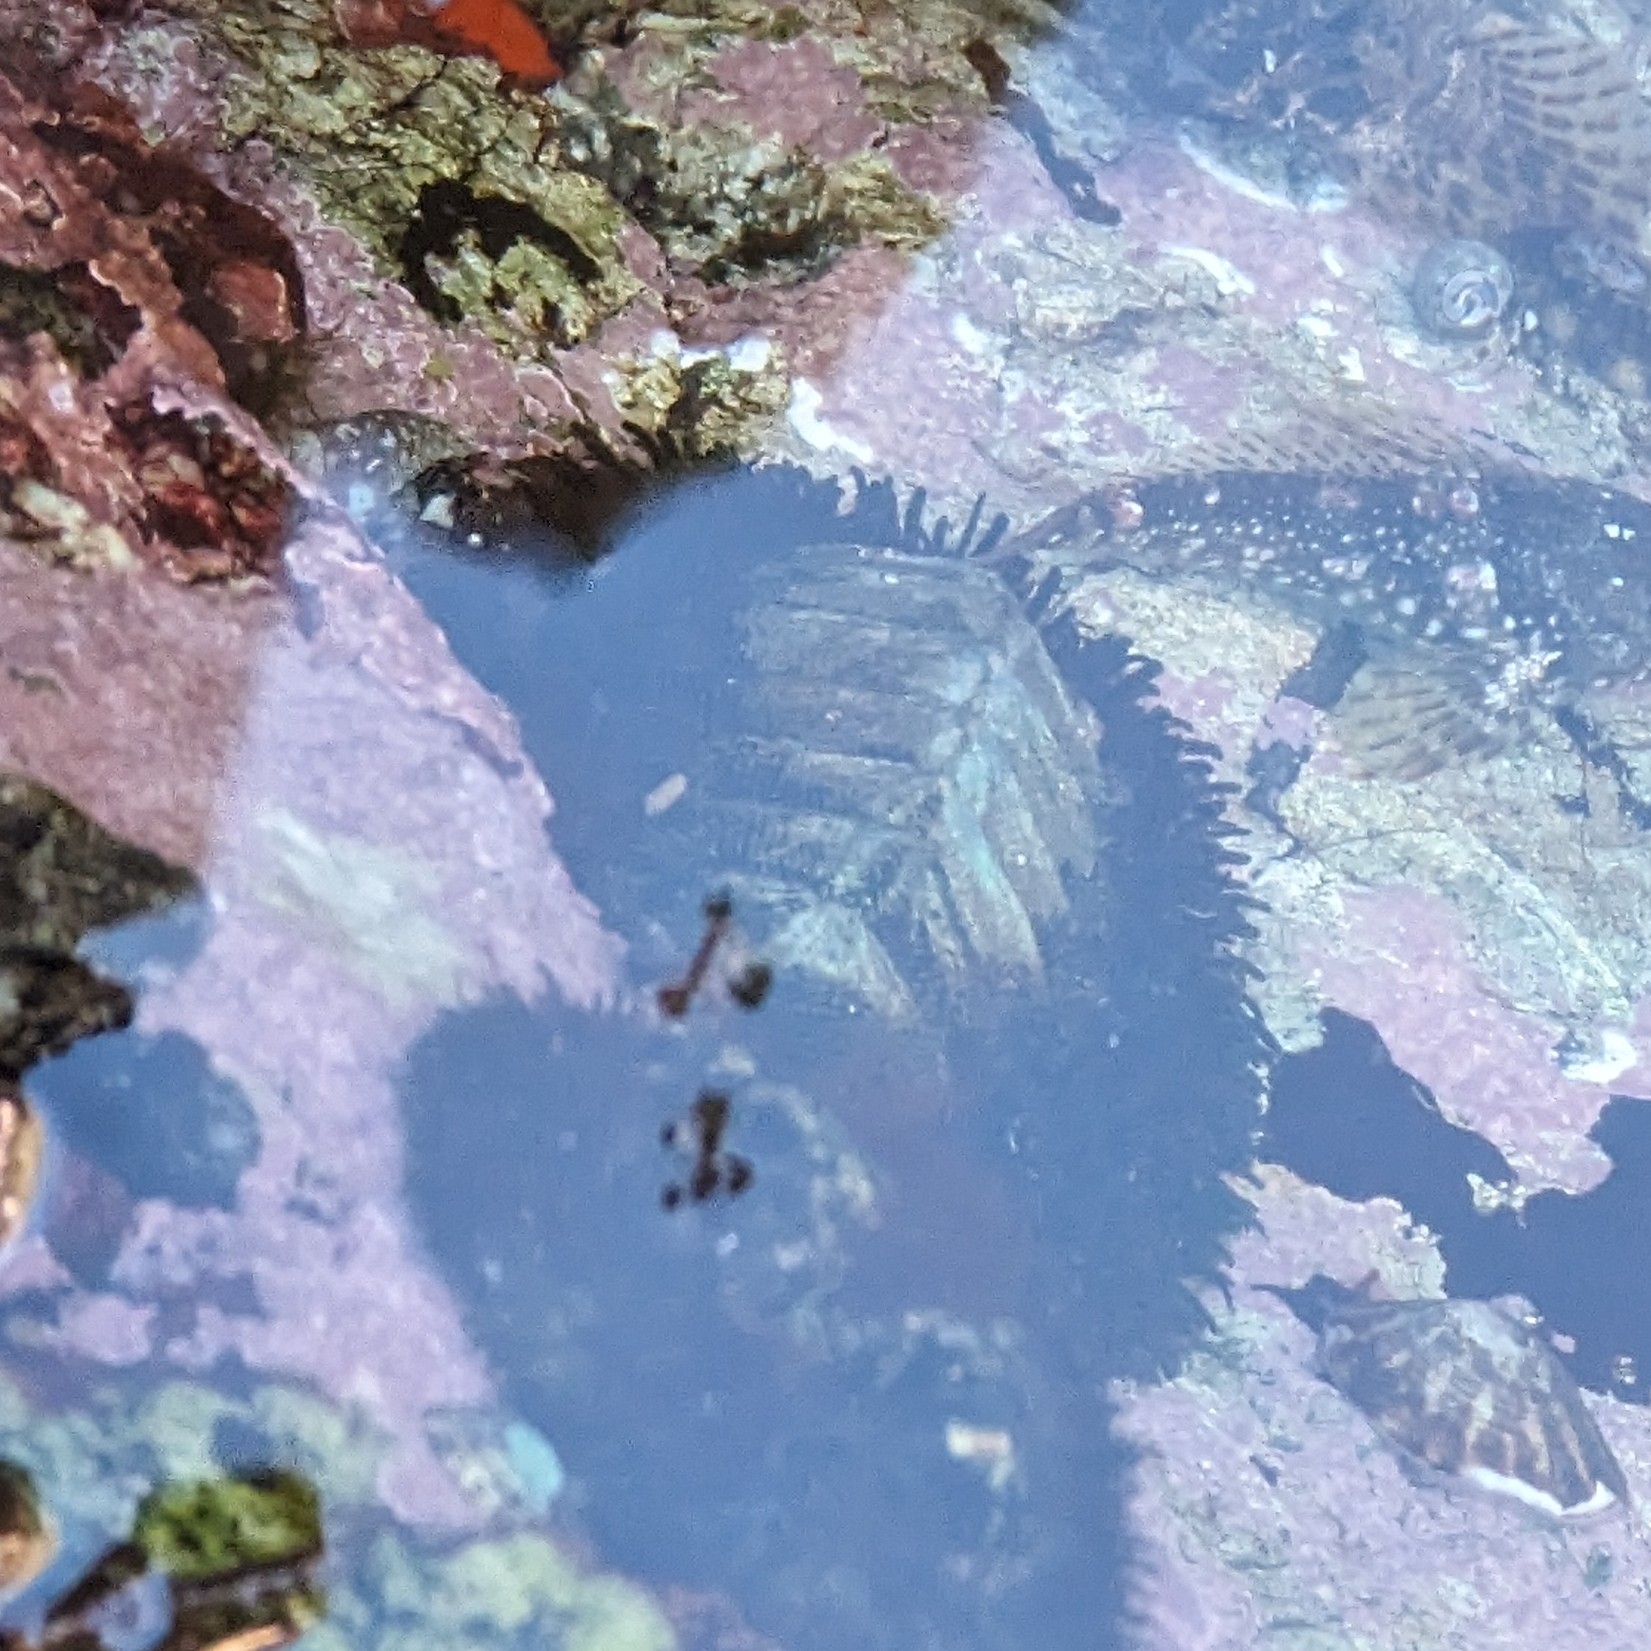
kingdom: Animalia
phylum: Mollusca
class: Polyplacophora
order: Chitonida
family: Mopaliidae
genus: Mopalia
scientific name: Mopalia muscosa
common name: Mossy chiton
